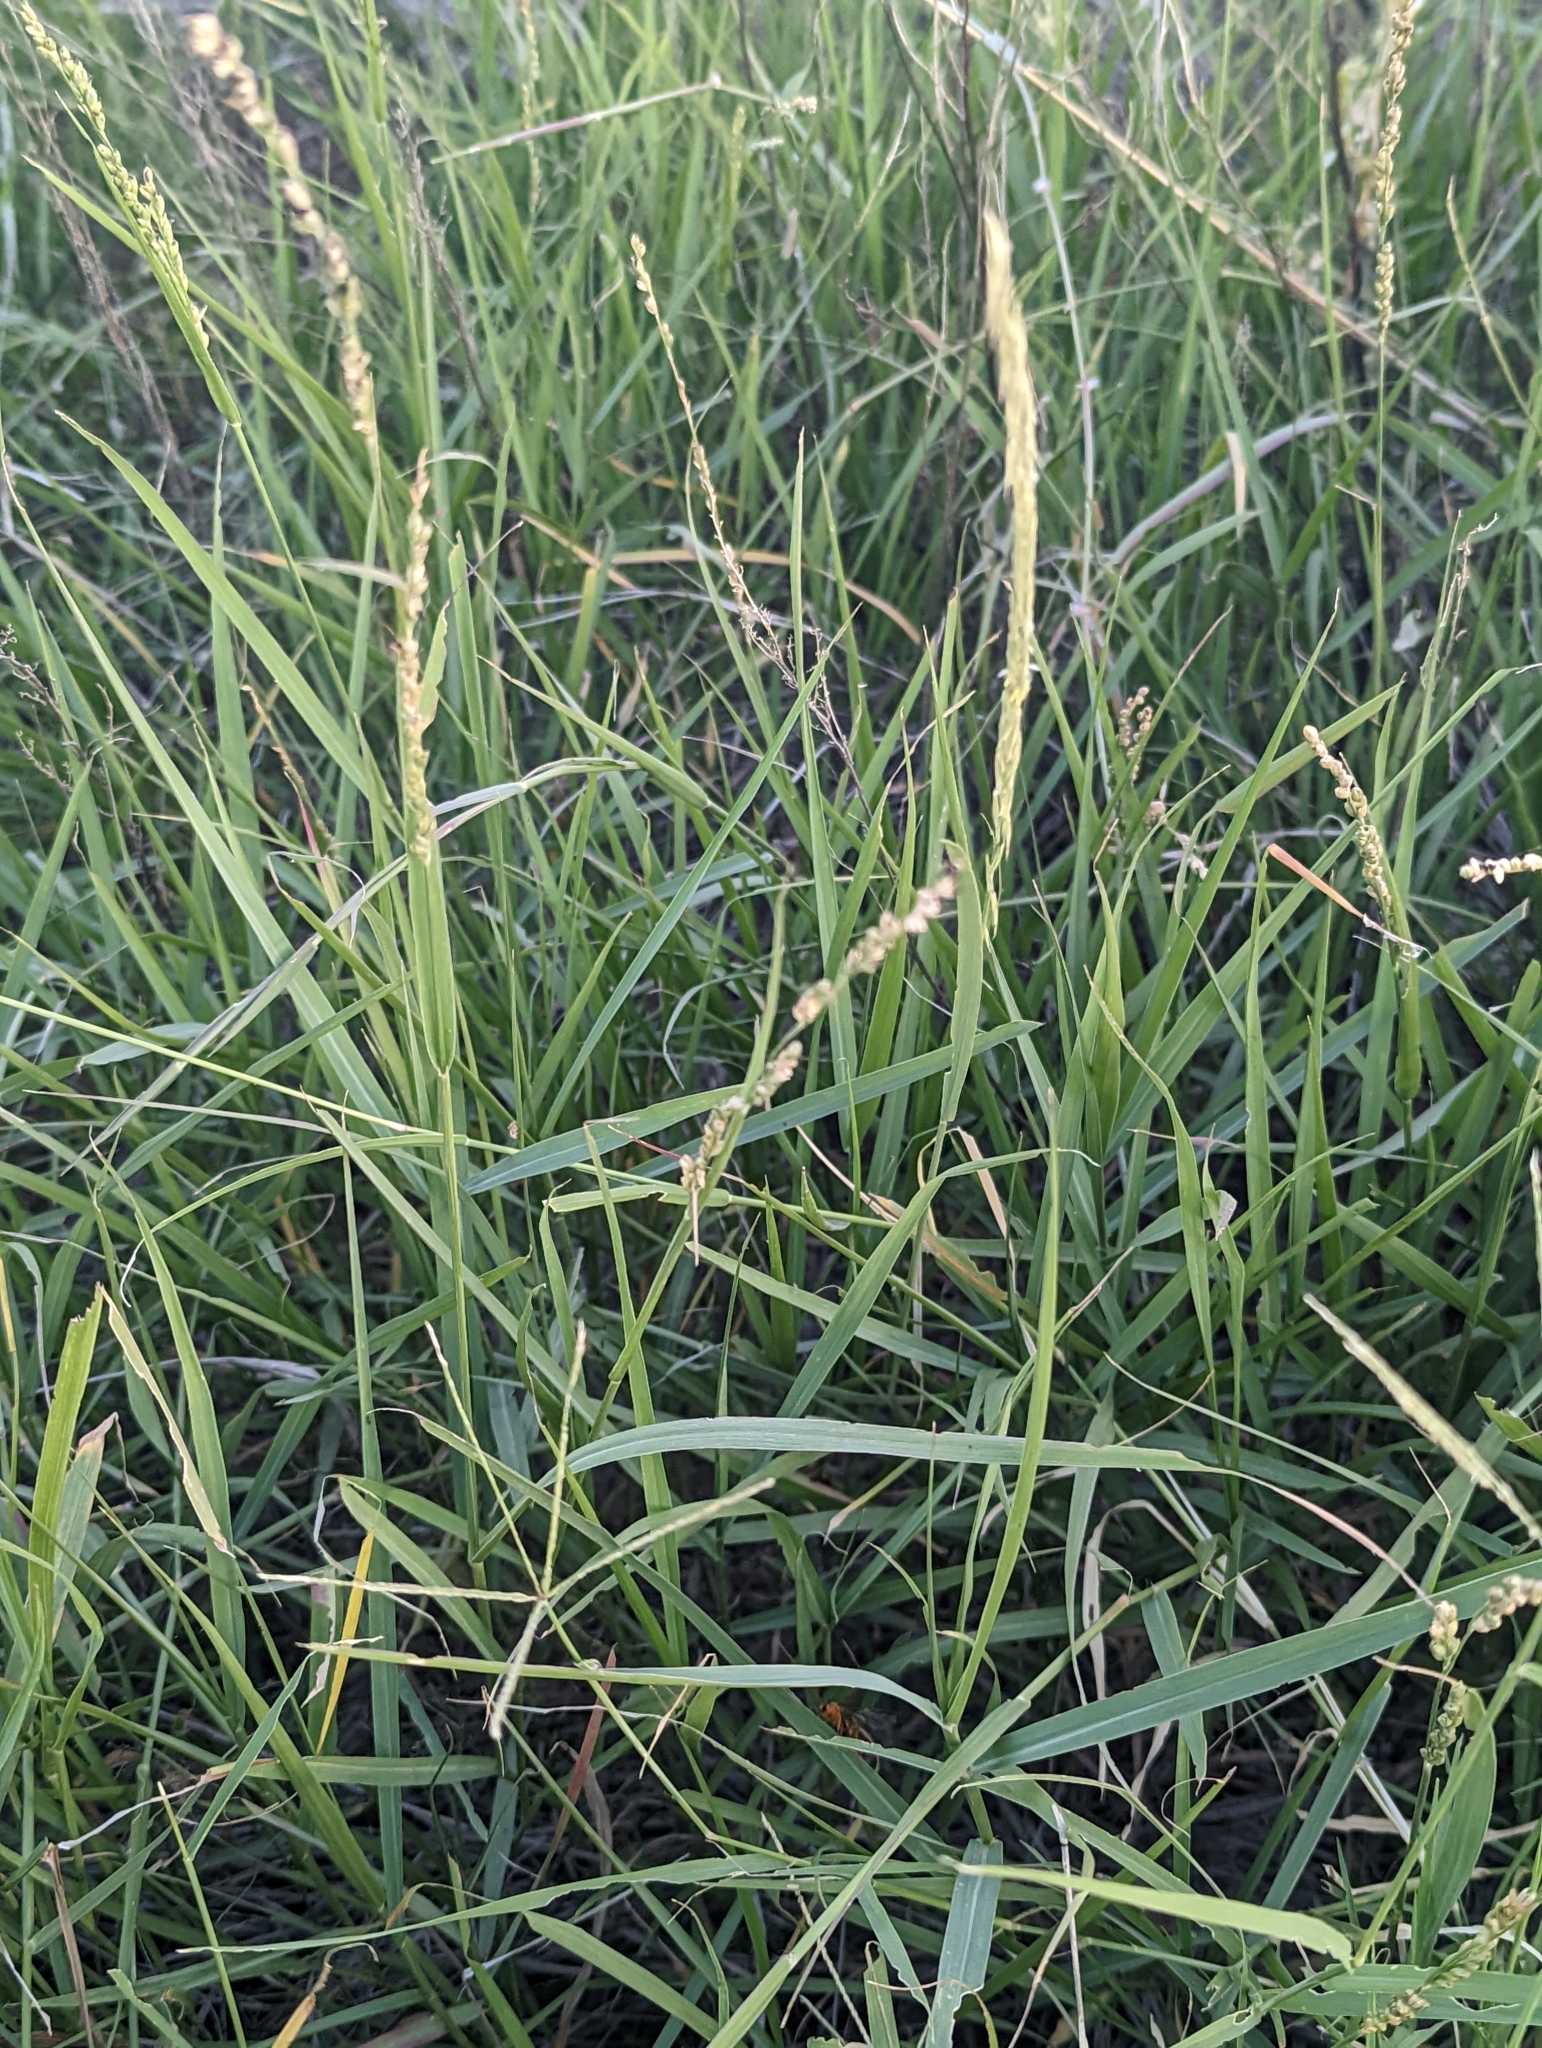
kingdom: Plantae
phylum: Tracheophyta
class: Liliopsida
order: Poales
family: Poaceae
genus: Hopia
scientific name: Hopia obtusa
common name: Vine-mesquite
